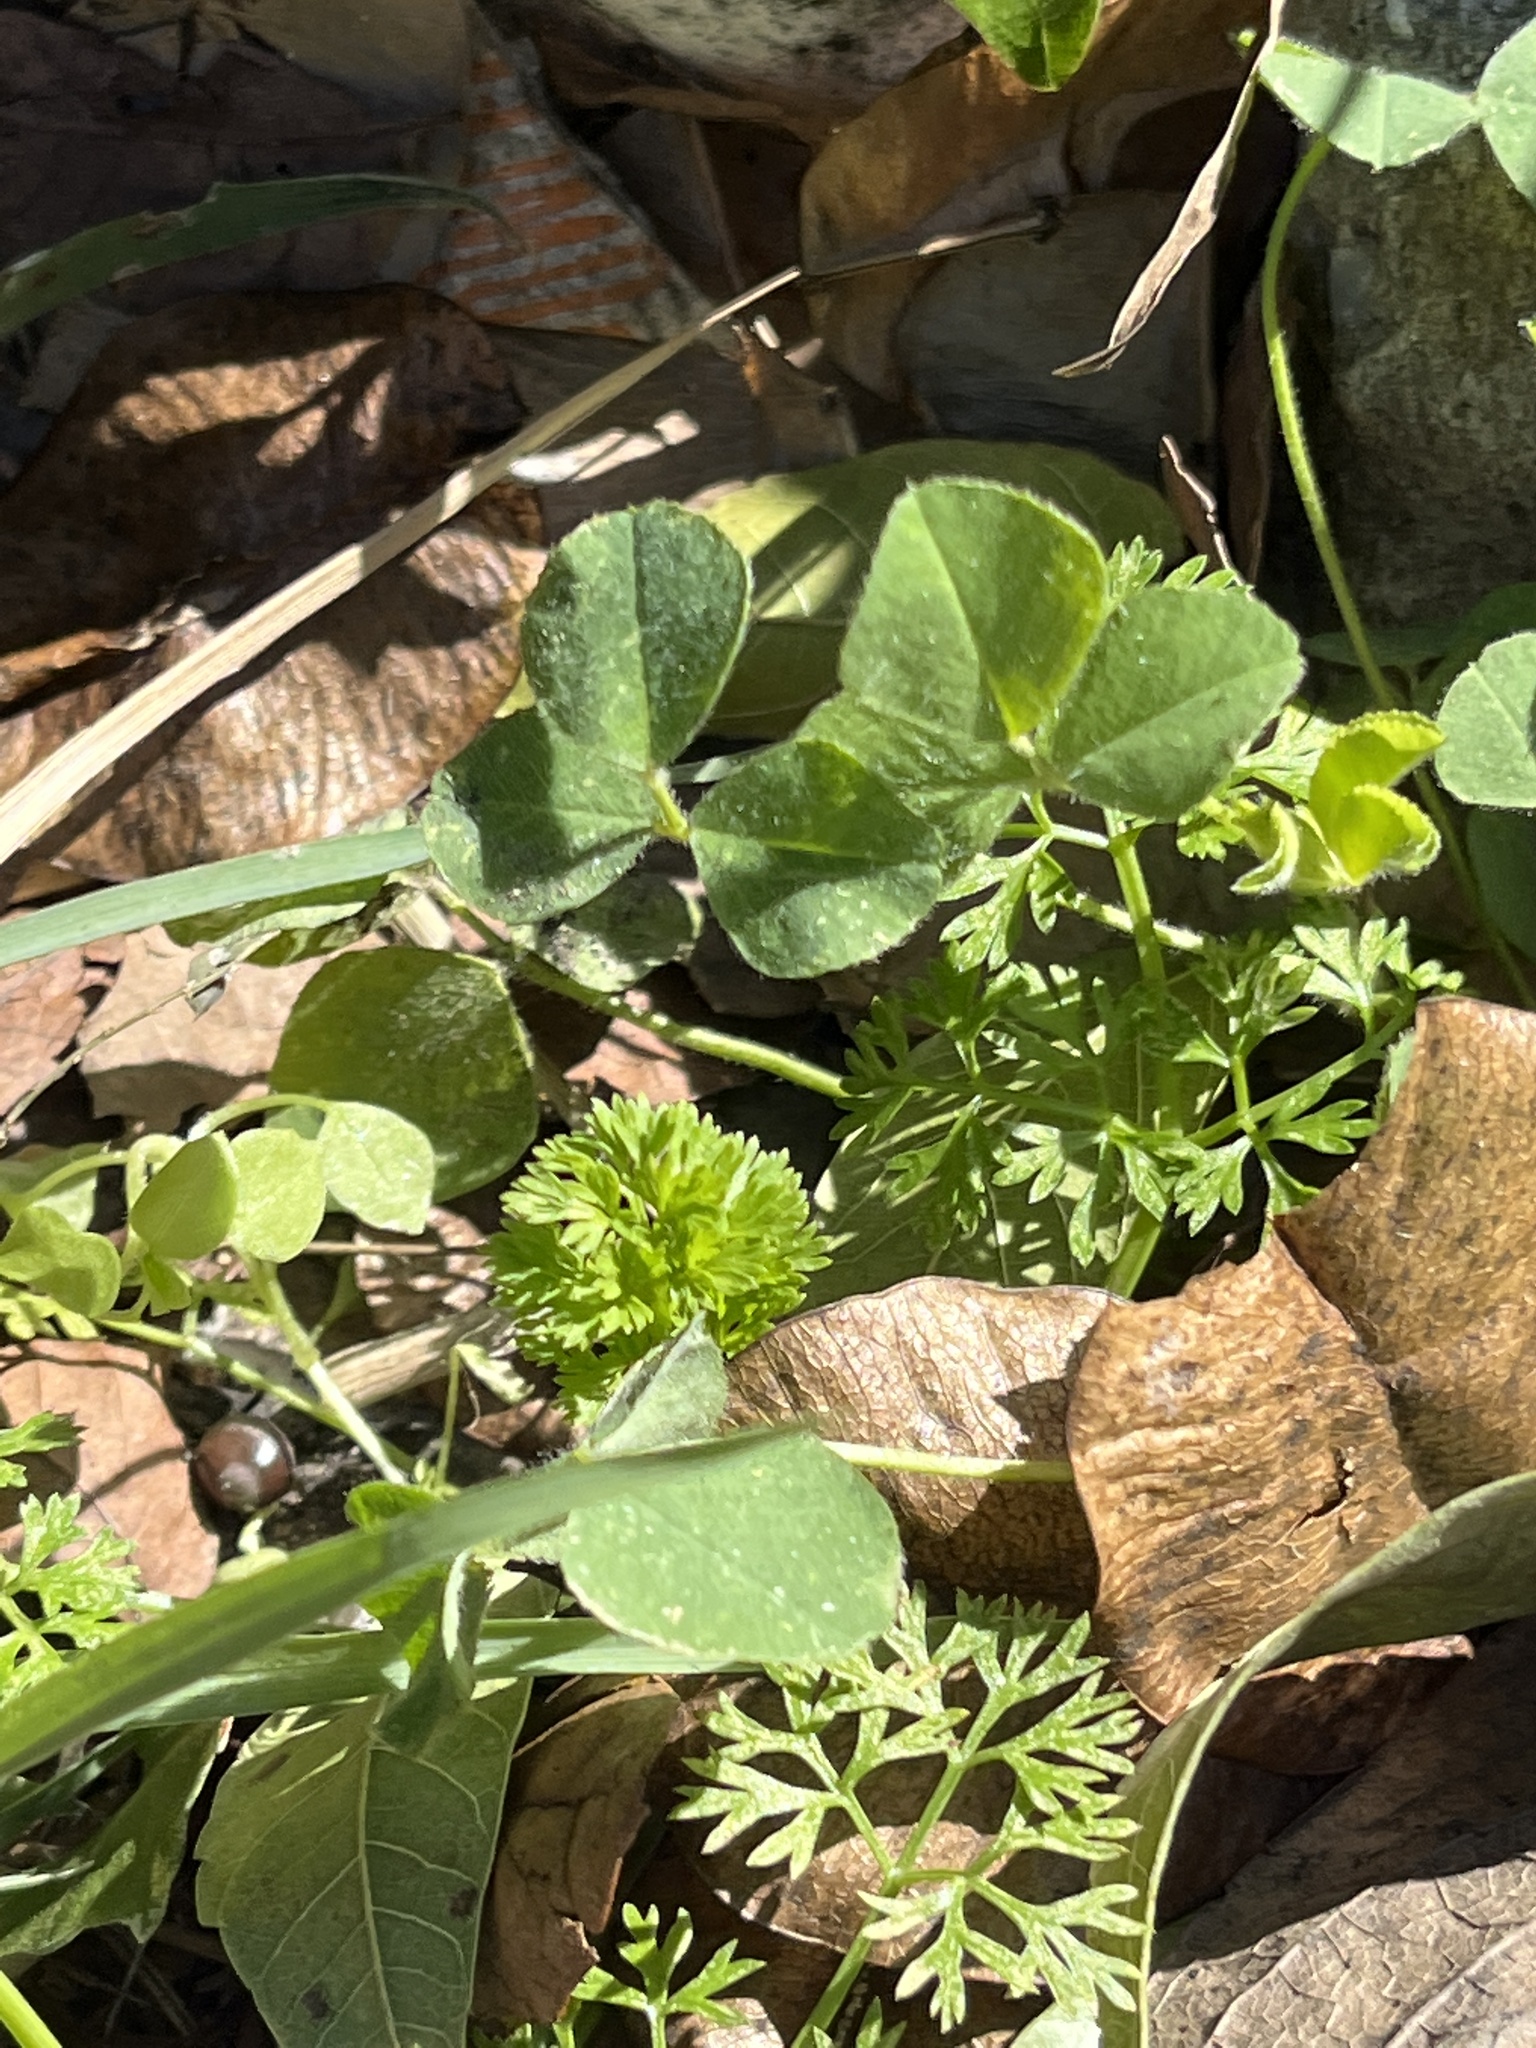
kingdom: Plantae
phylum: Tracheophyta
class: Magnoliopsida
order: Fabales
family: Fabaceae
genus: Medicago
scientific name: Medicago polymorpha
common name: Burclover
